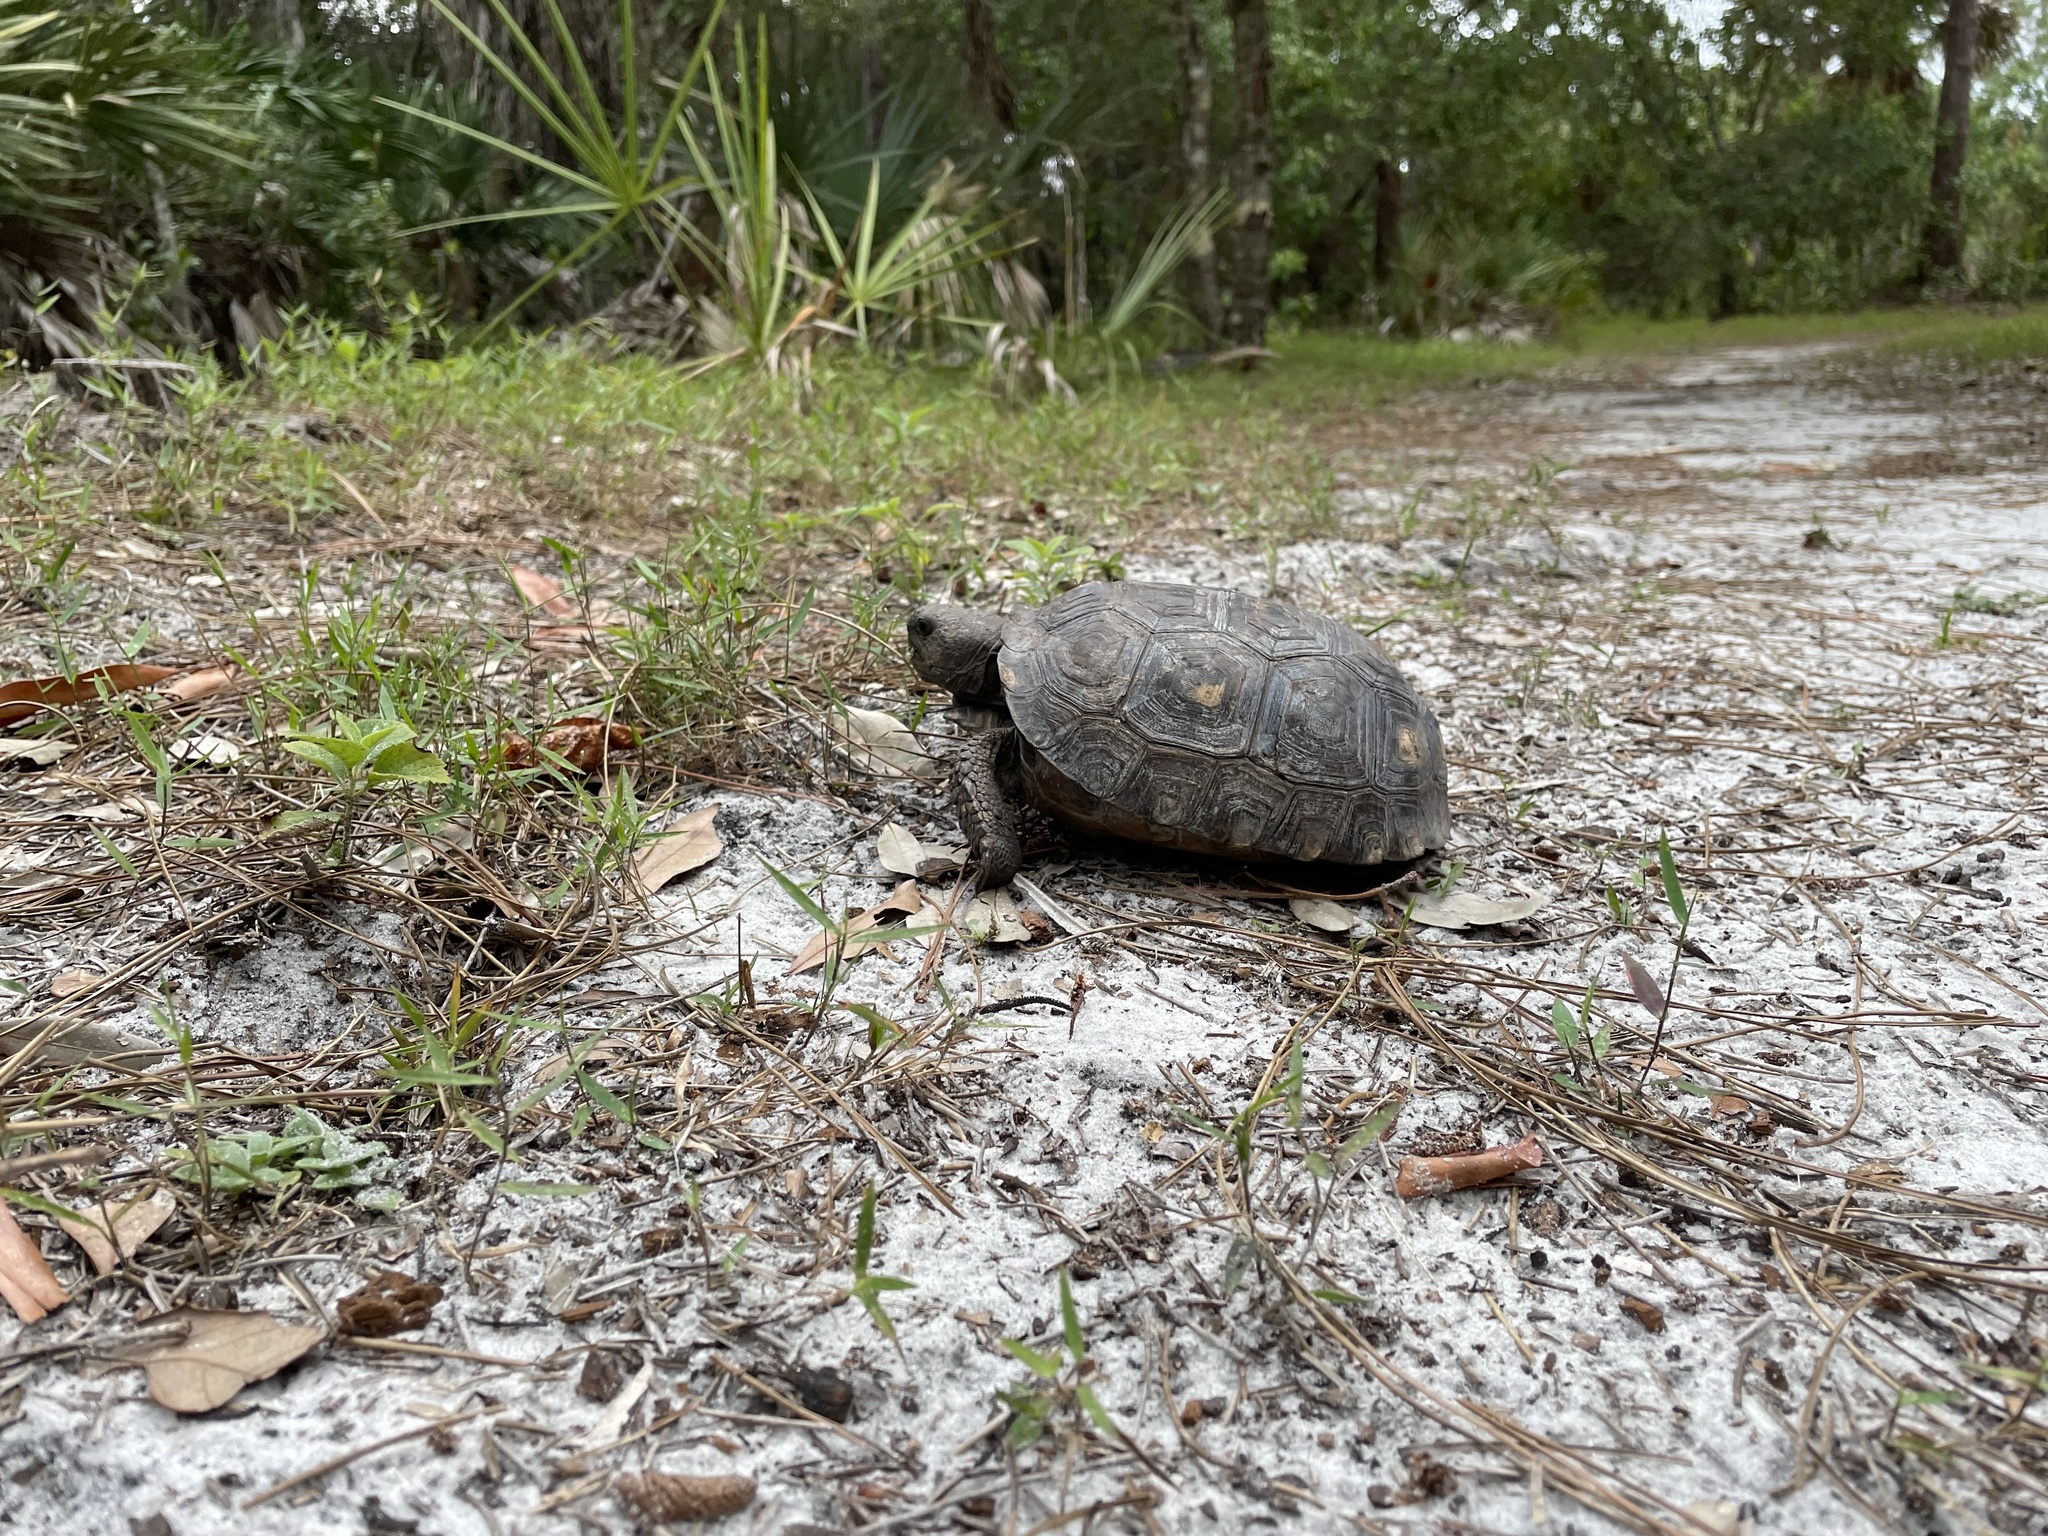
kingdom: Animalia
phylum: Chordata
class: Testudines
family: Testudinidae
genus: Gopherus
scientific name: Gopherus polyphemus
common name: Florida gopher tortoise
